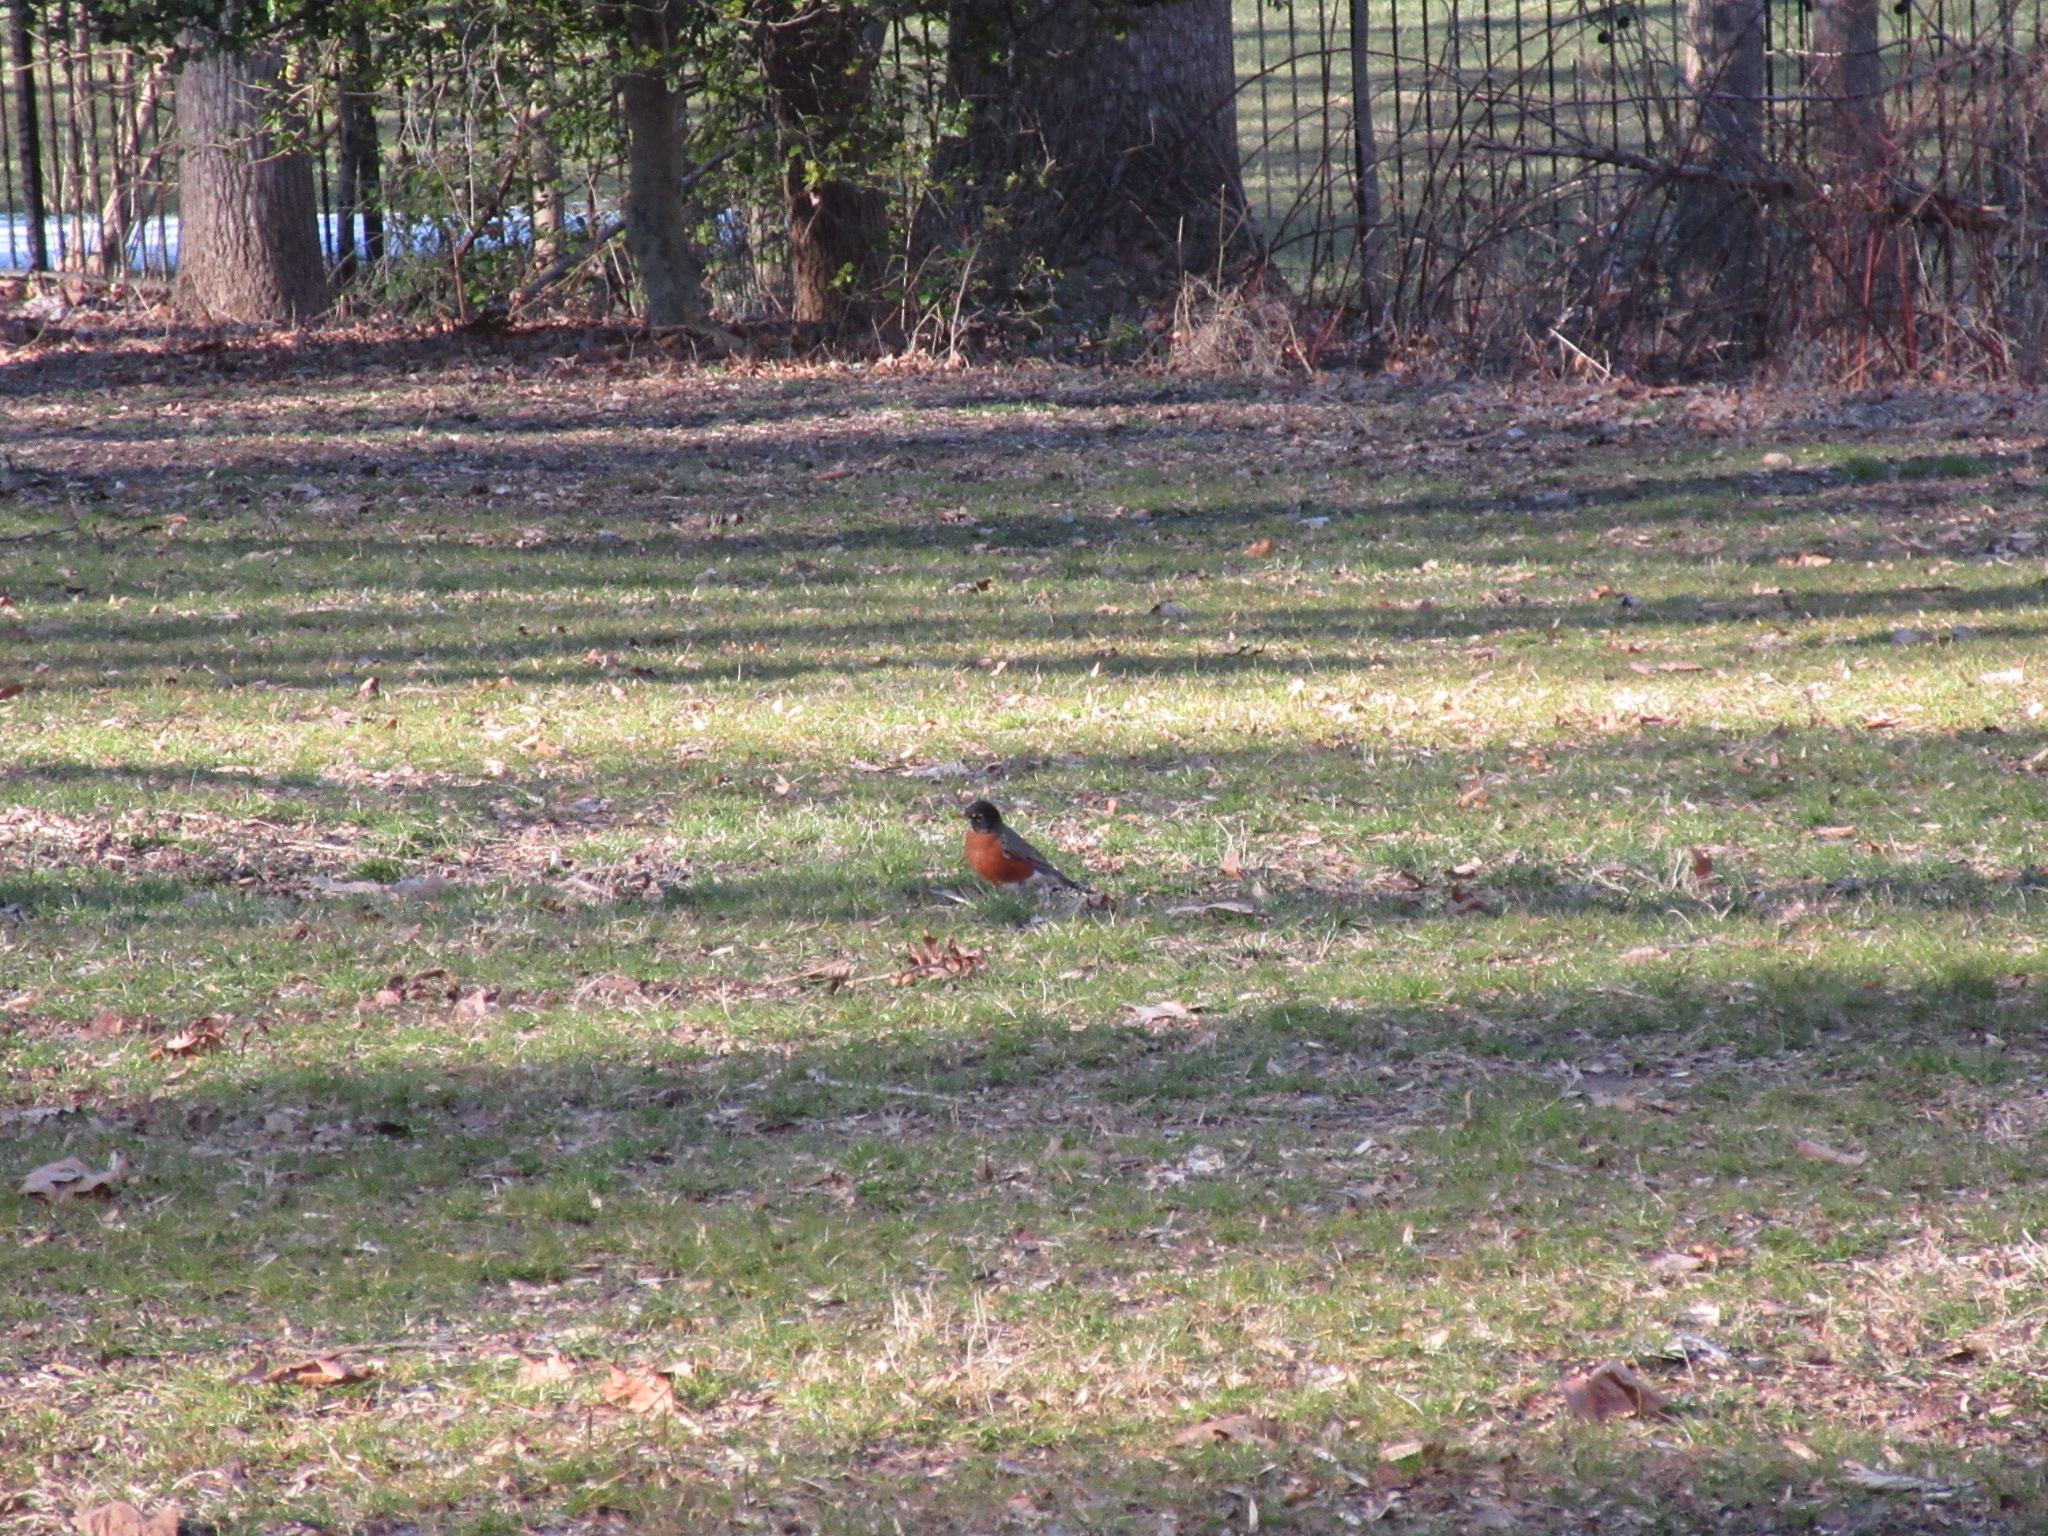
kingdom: Animalia
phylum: Chordata
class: Aves
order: Passeriformes
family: Turdidae
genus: Turdus
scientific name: Turdus migratorius
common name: American robin
